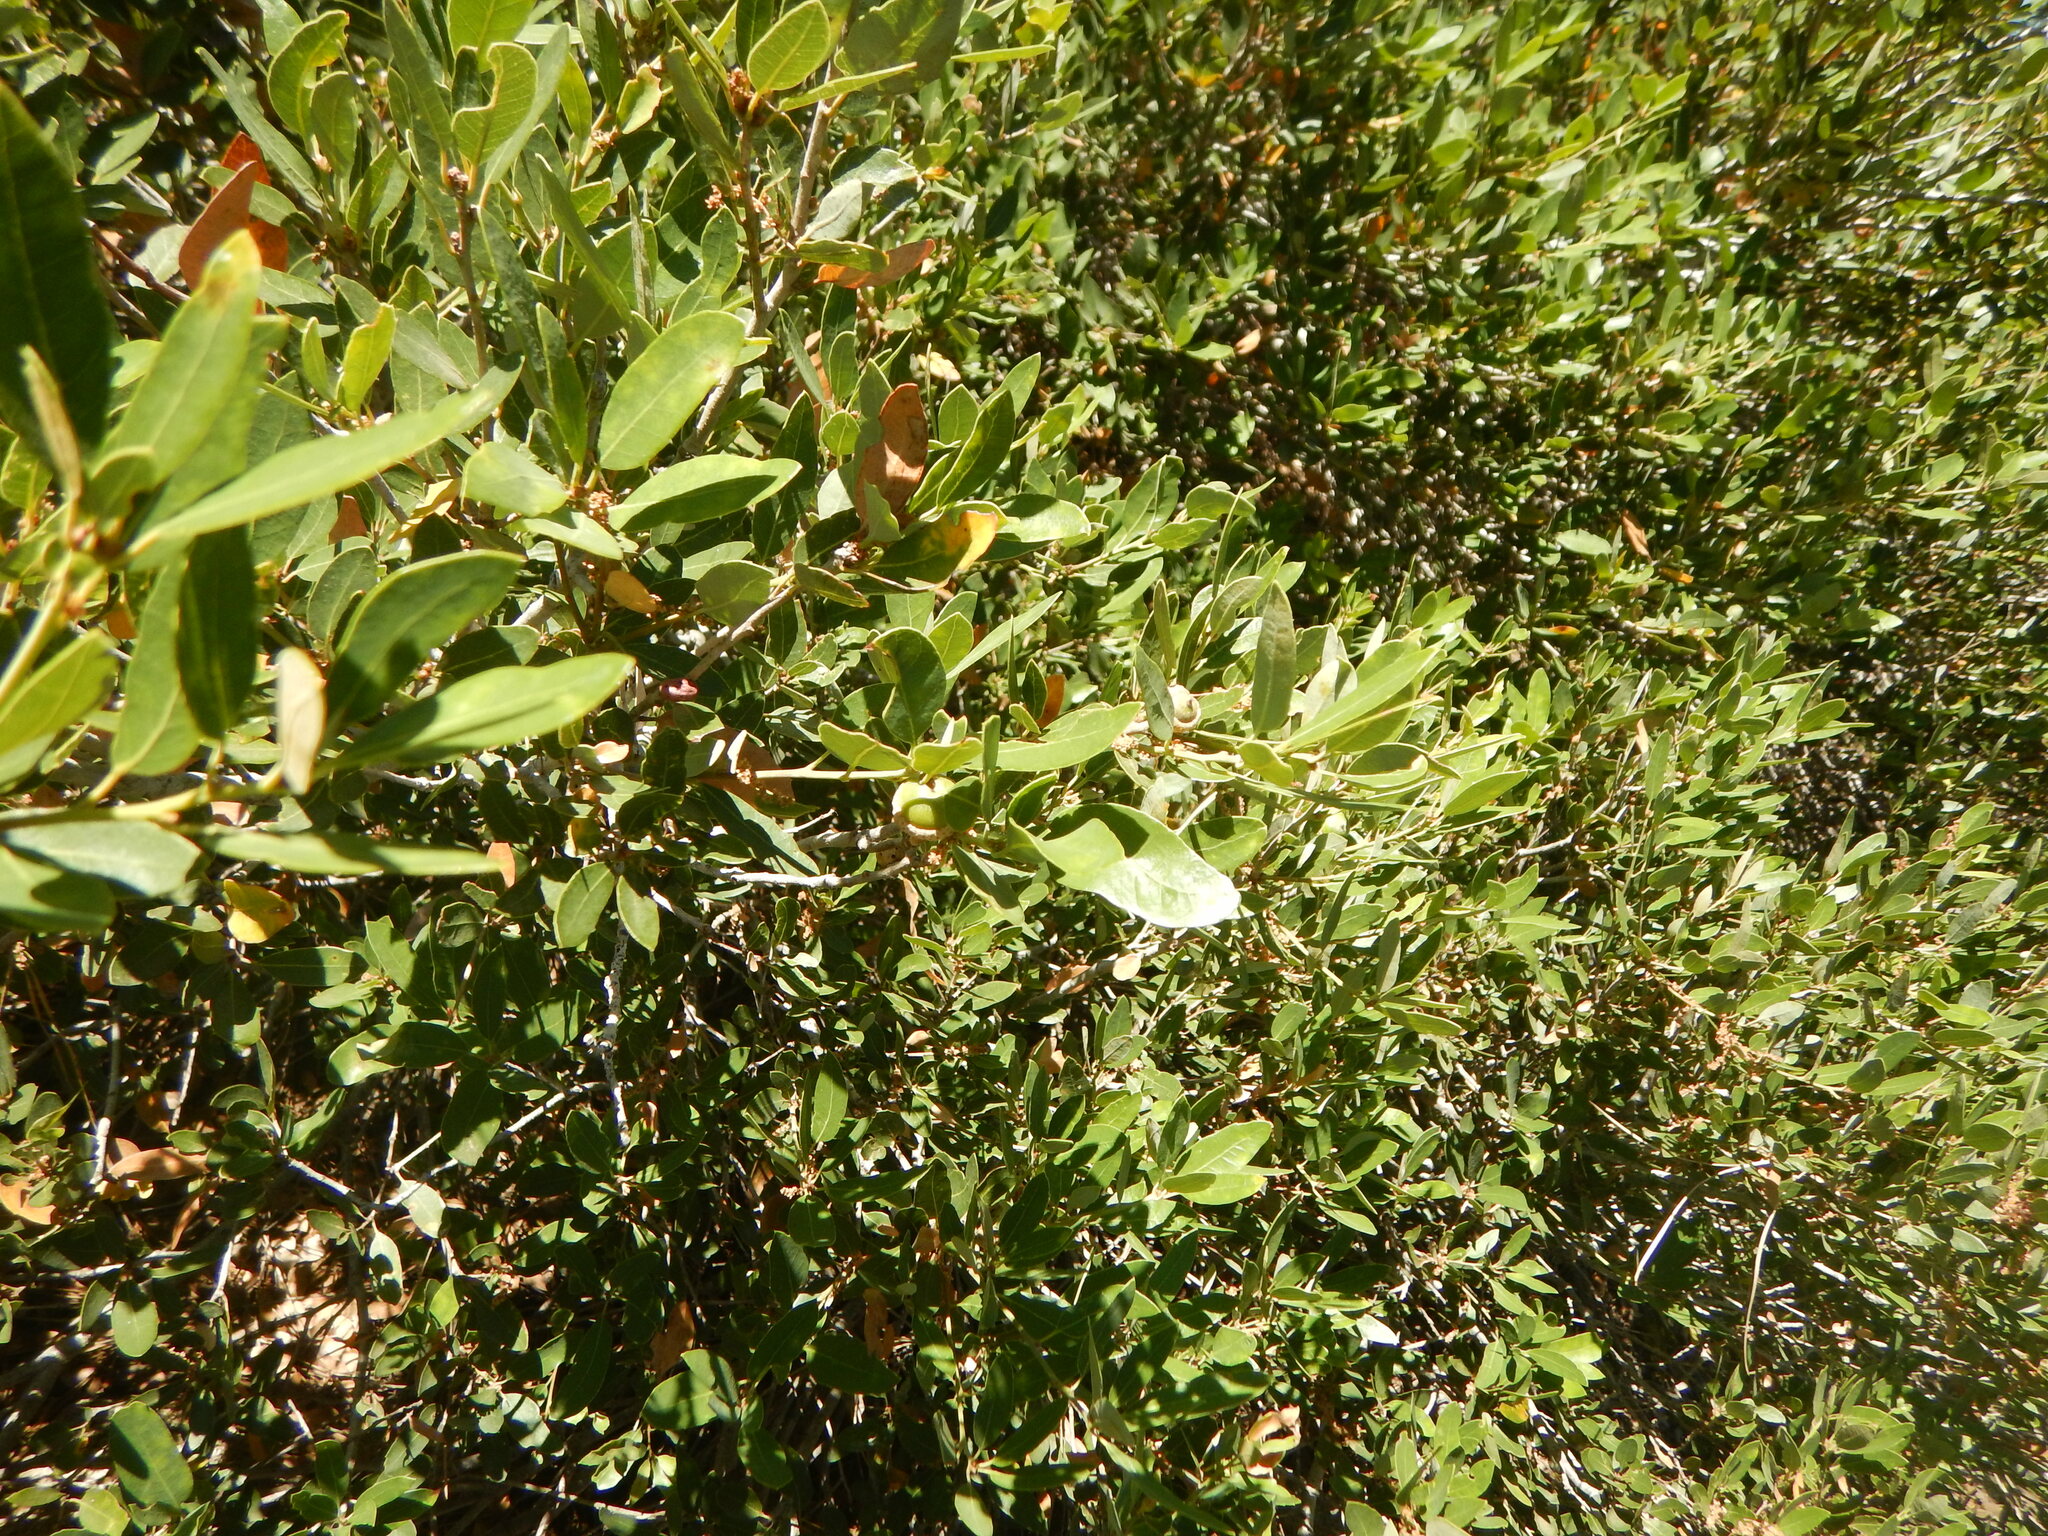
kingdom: Plantae
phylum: Tracheophyta
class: Magnoliopsida
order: Fagales
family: Fagaceae
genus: Quercus
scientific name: Quercus vacciniifolia
